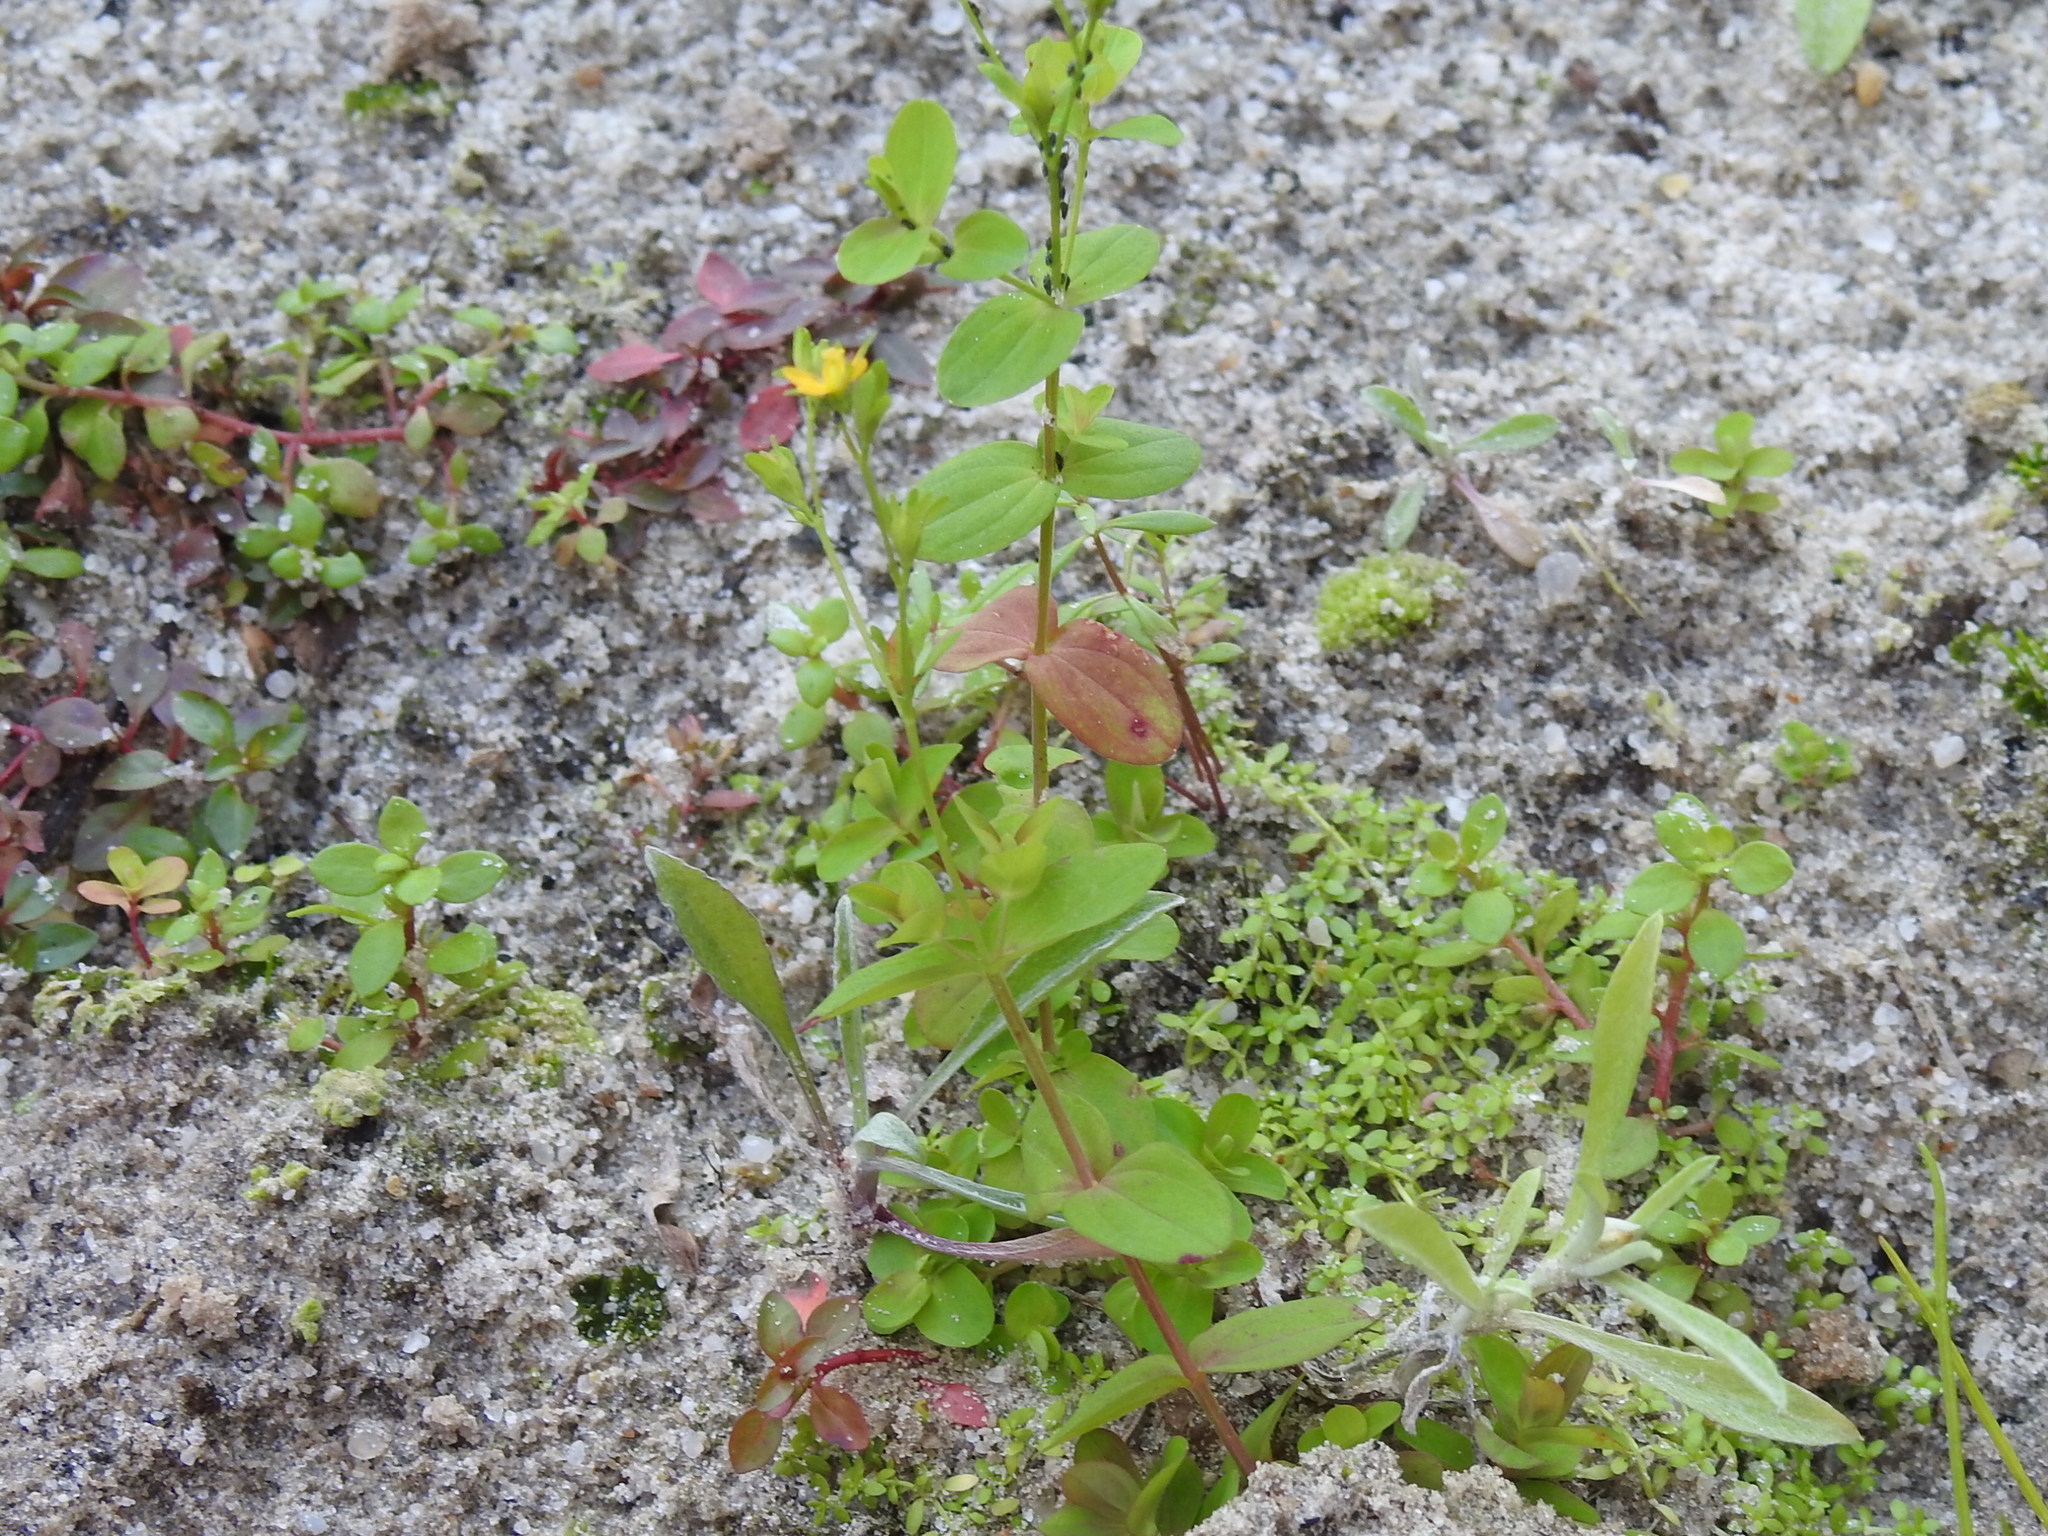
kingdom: Plantae
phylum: Tracheophyta
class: Magnoliopsida
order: Malpighiales
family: Hypericaceae
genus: Hypericum
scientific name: Hypericum mutilum
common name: Dwarf st. john's-wort
